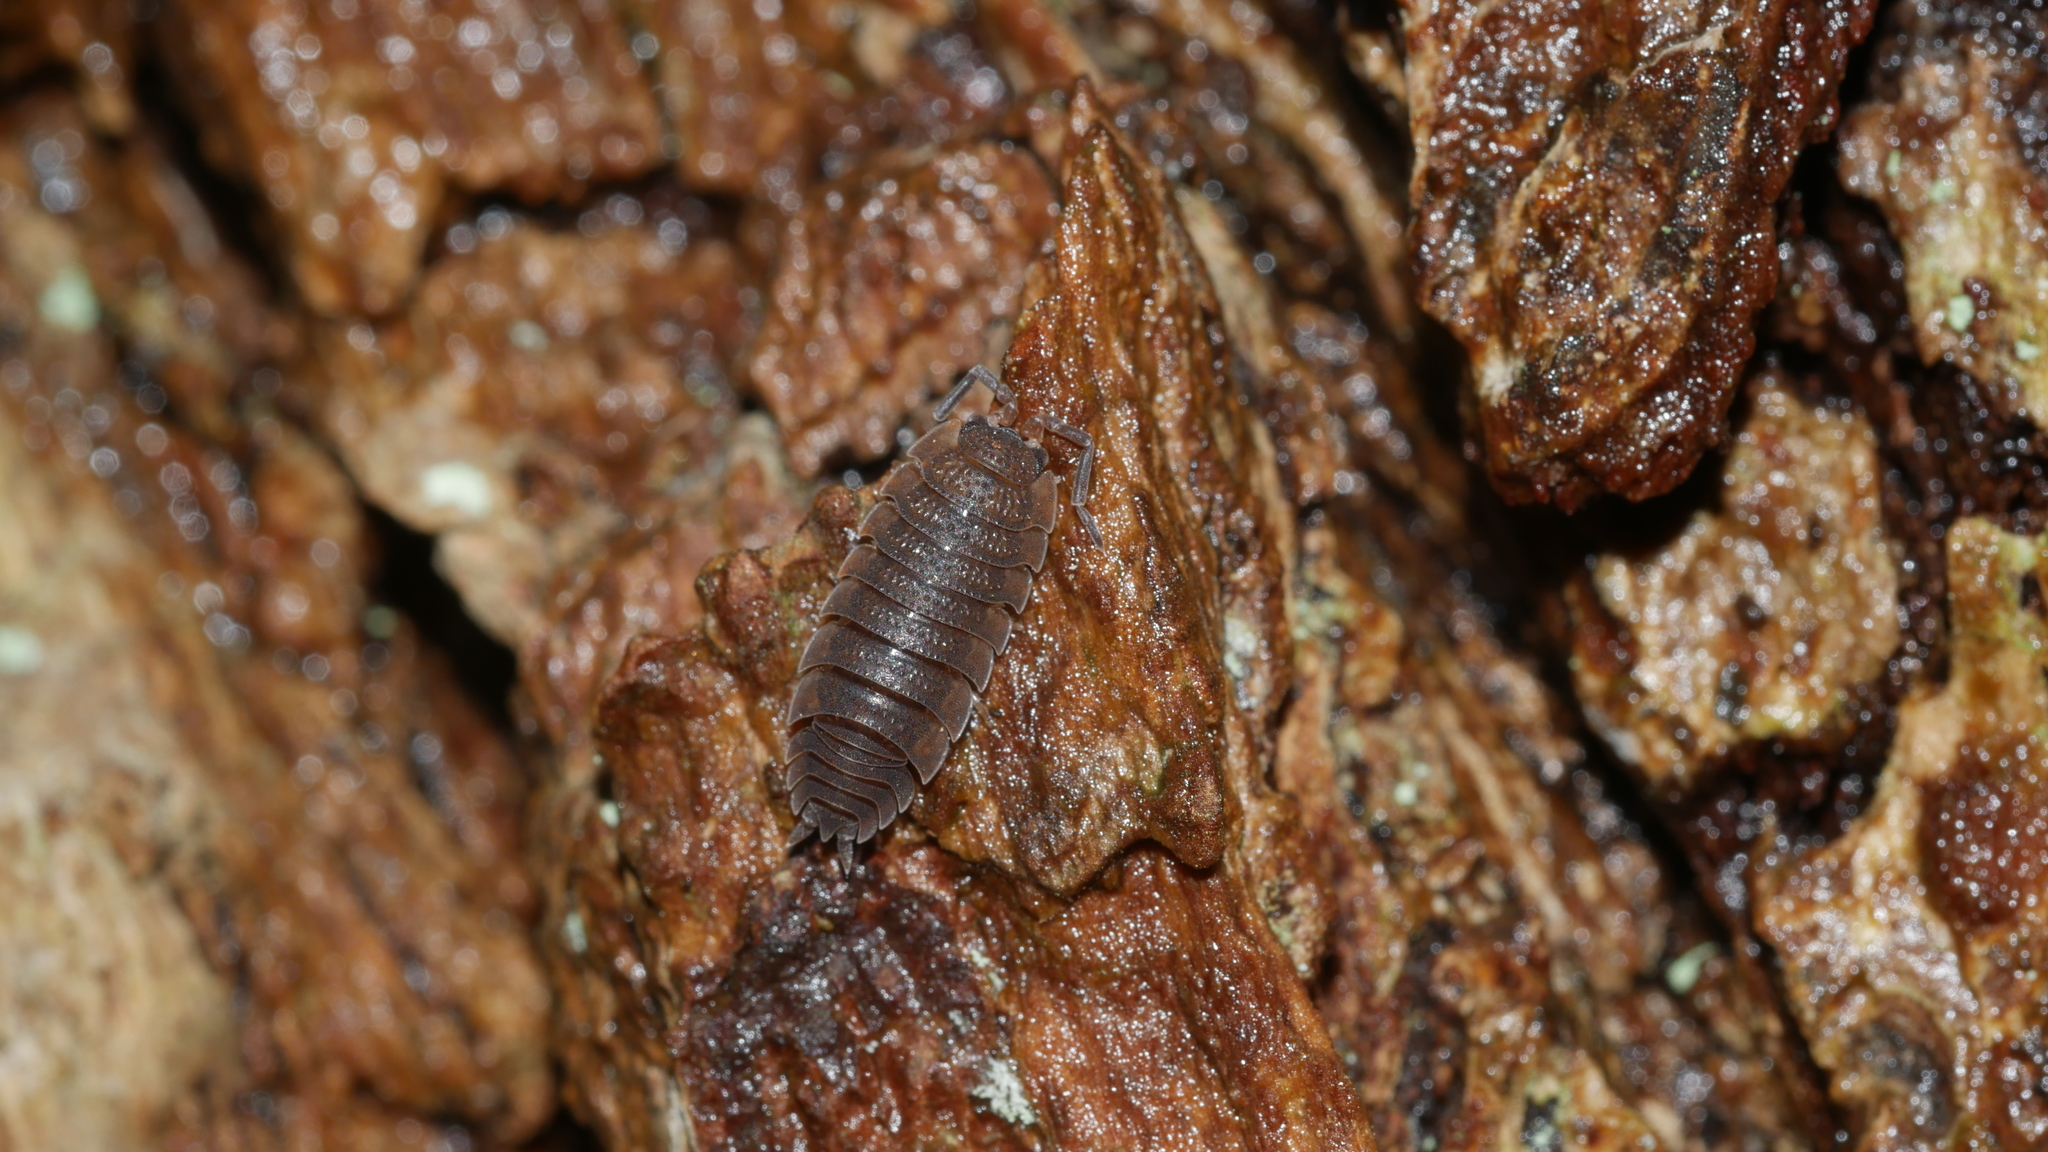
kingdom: Animalia
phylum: Arthropoda
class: Malacostraca
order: Isopoda
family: Porcellionidae
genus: Porcellio
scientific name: Porcellio scaber
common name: Common rough woodlouse
